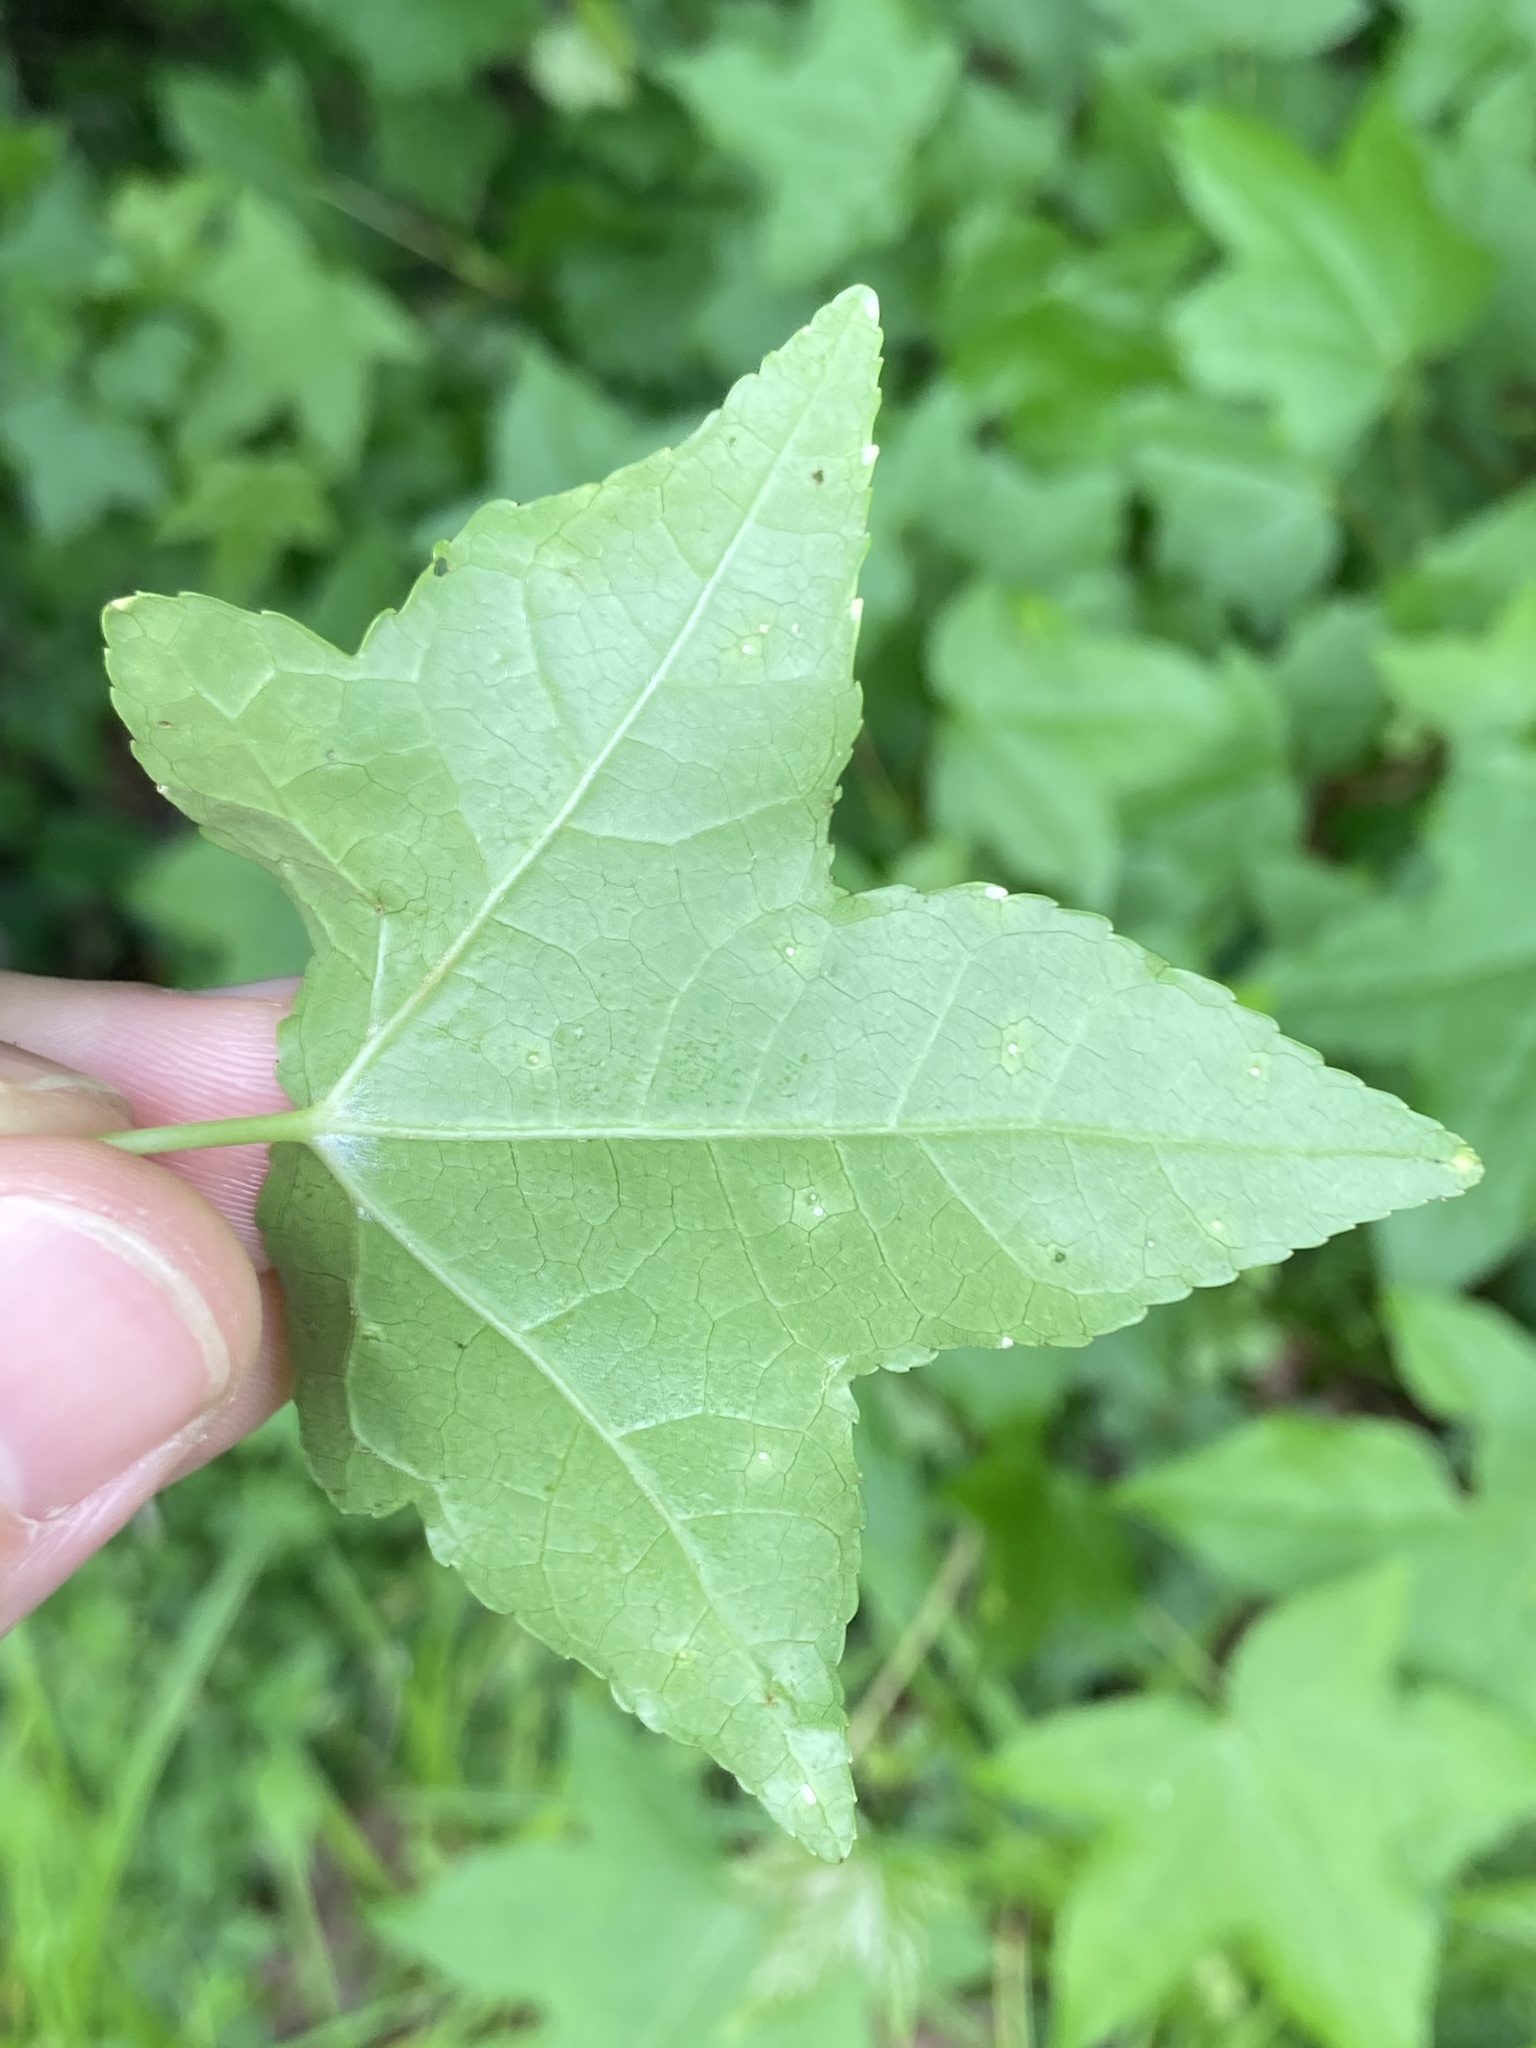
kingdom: Animalia
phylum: Arthropoda
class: Insecta
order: Hemiptera
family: Diaspididae
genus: Diaspidiotus
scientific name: Diaspidiotus liquidambaris
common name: Sweet gum scale
